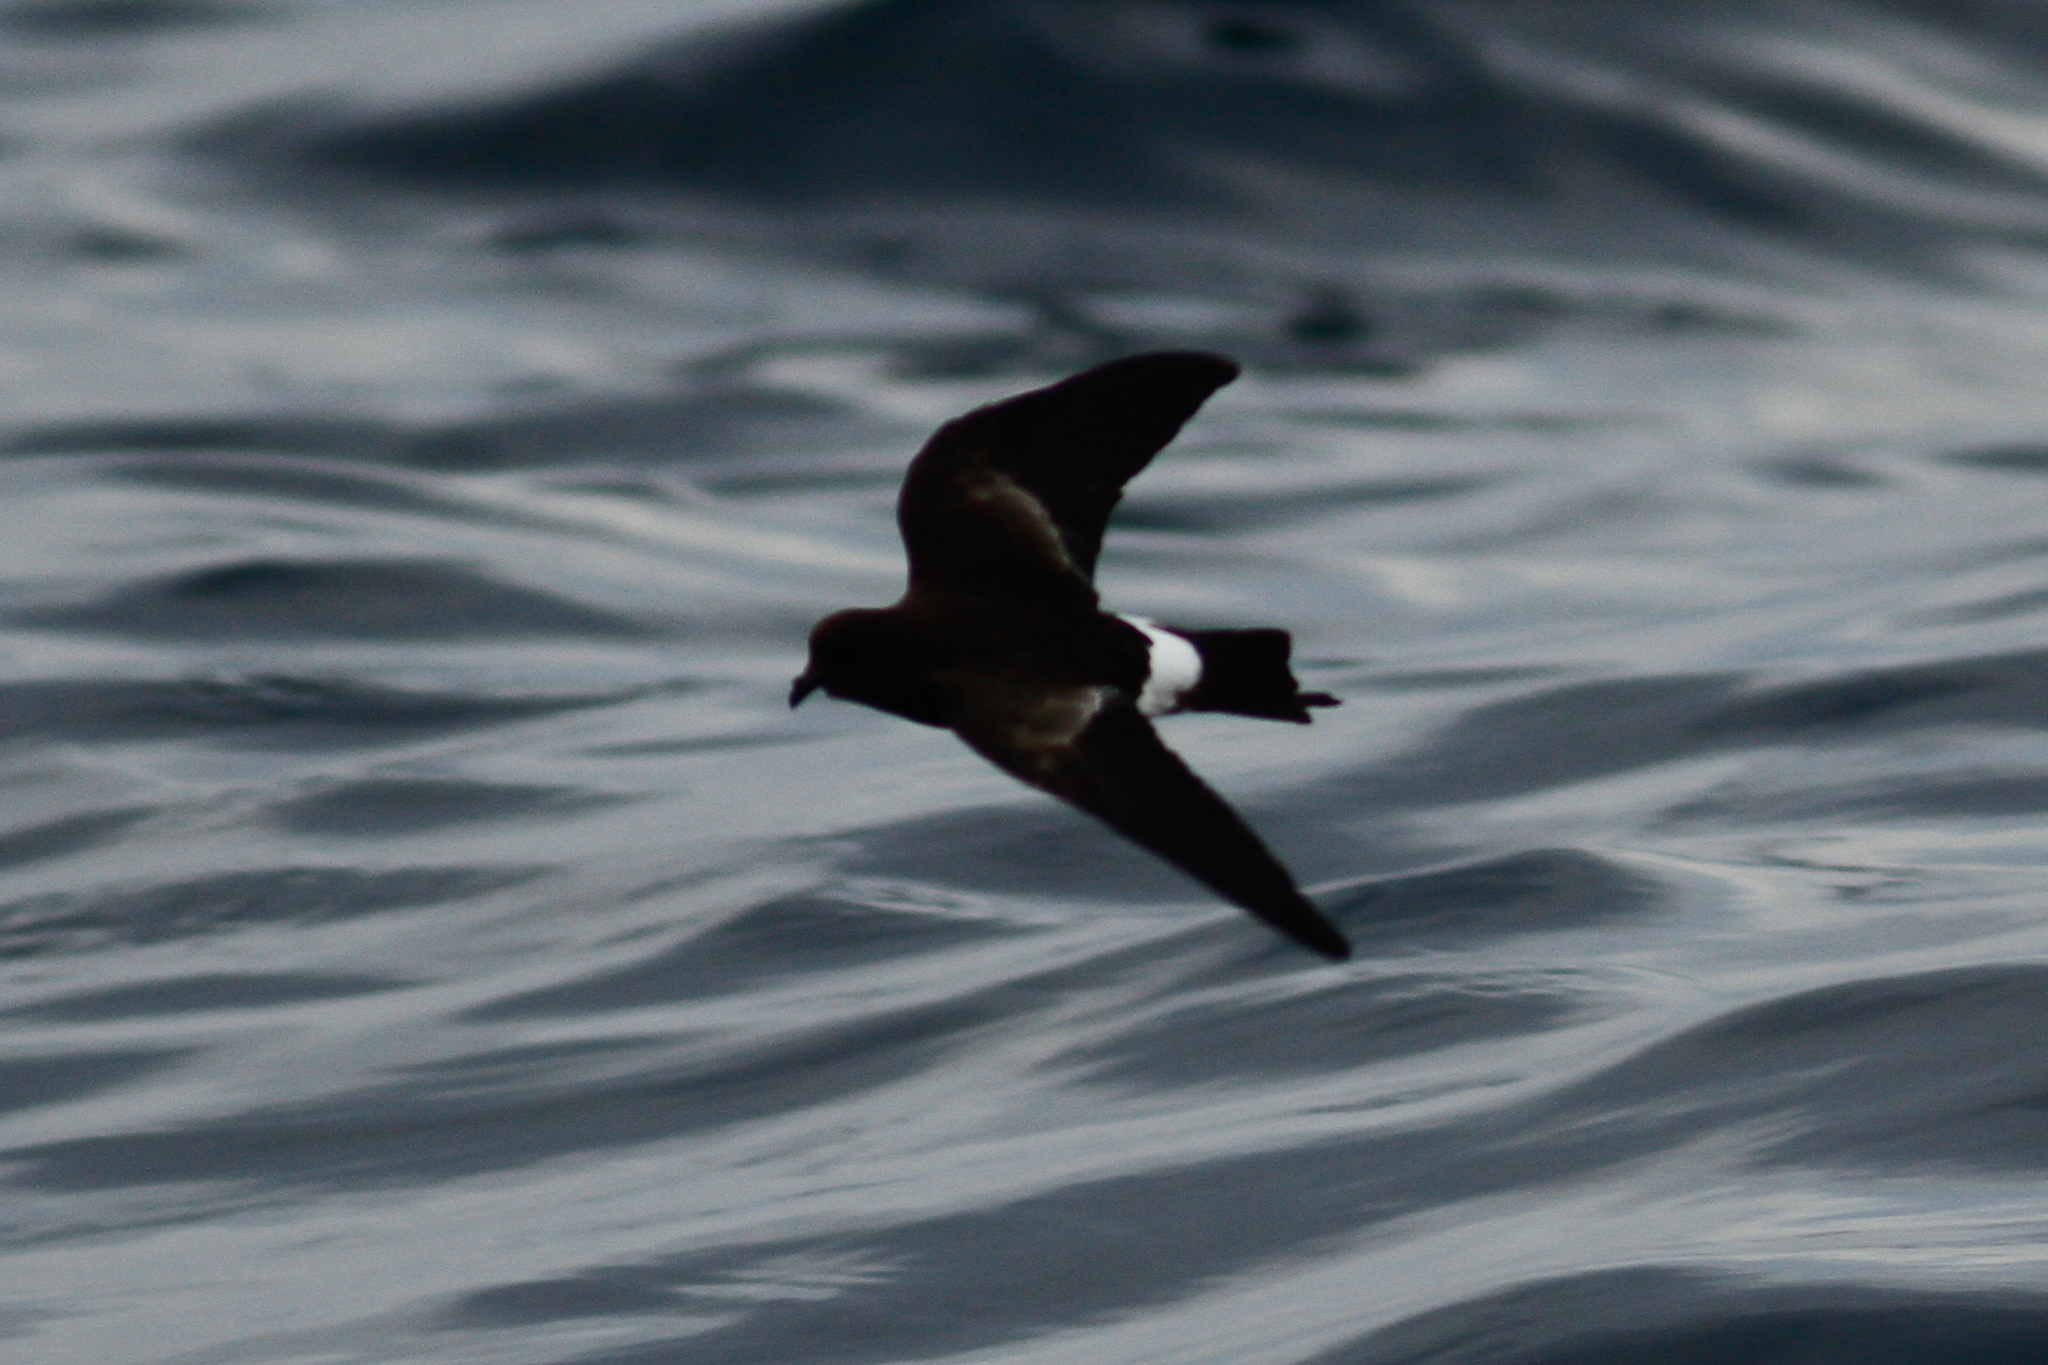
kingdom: Animalia
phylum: Chordata
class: Aves
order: Procellariiformes
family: Hydrobatidae
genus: Oceanites
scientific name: Oceanites oceanicus
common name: Wilson's storm petrel
